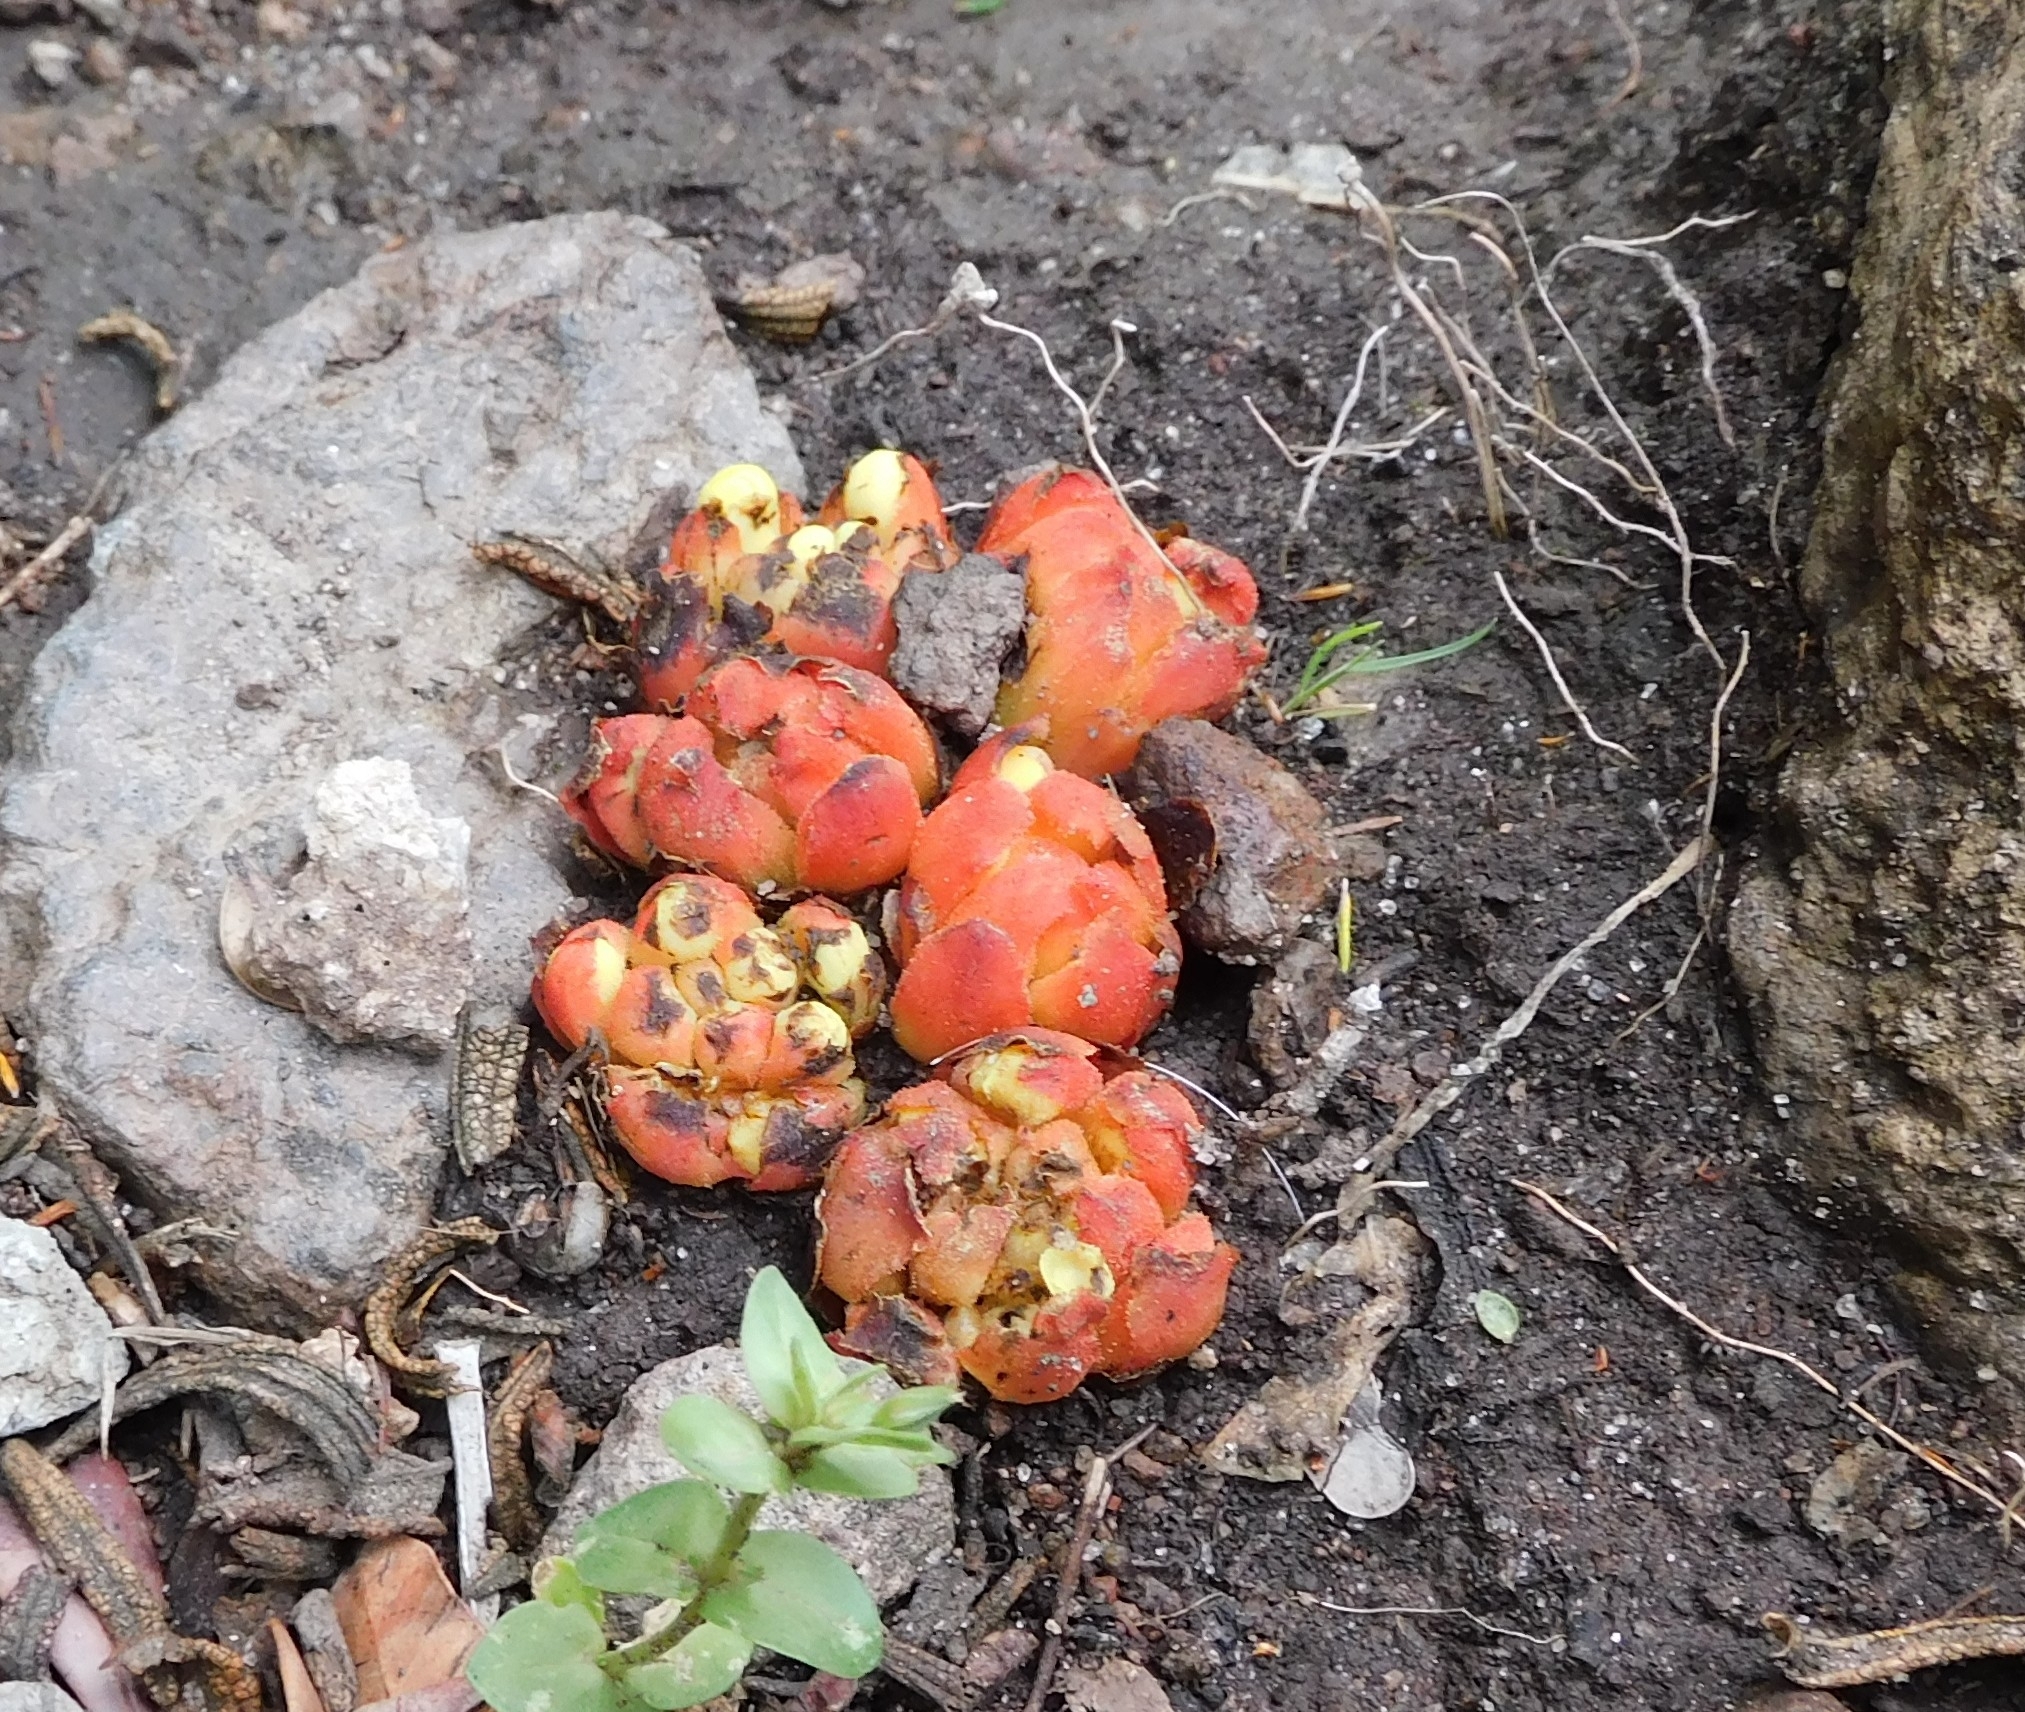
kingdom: Plantae
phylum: Tracheophyta
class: Magnoliopsida
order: Malvales
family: Cytinaceae
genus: Cytinus
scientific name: Cytinus hypocistis
